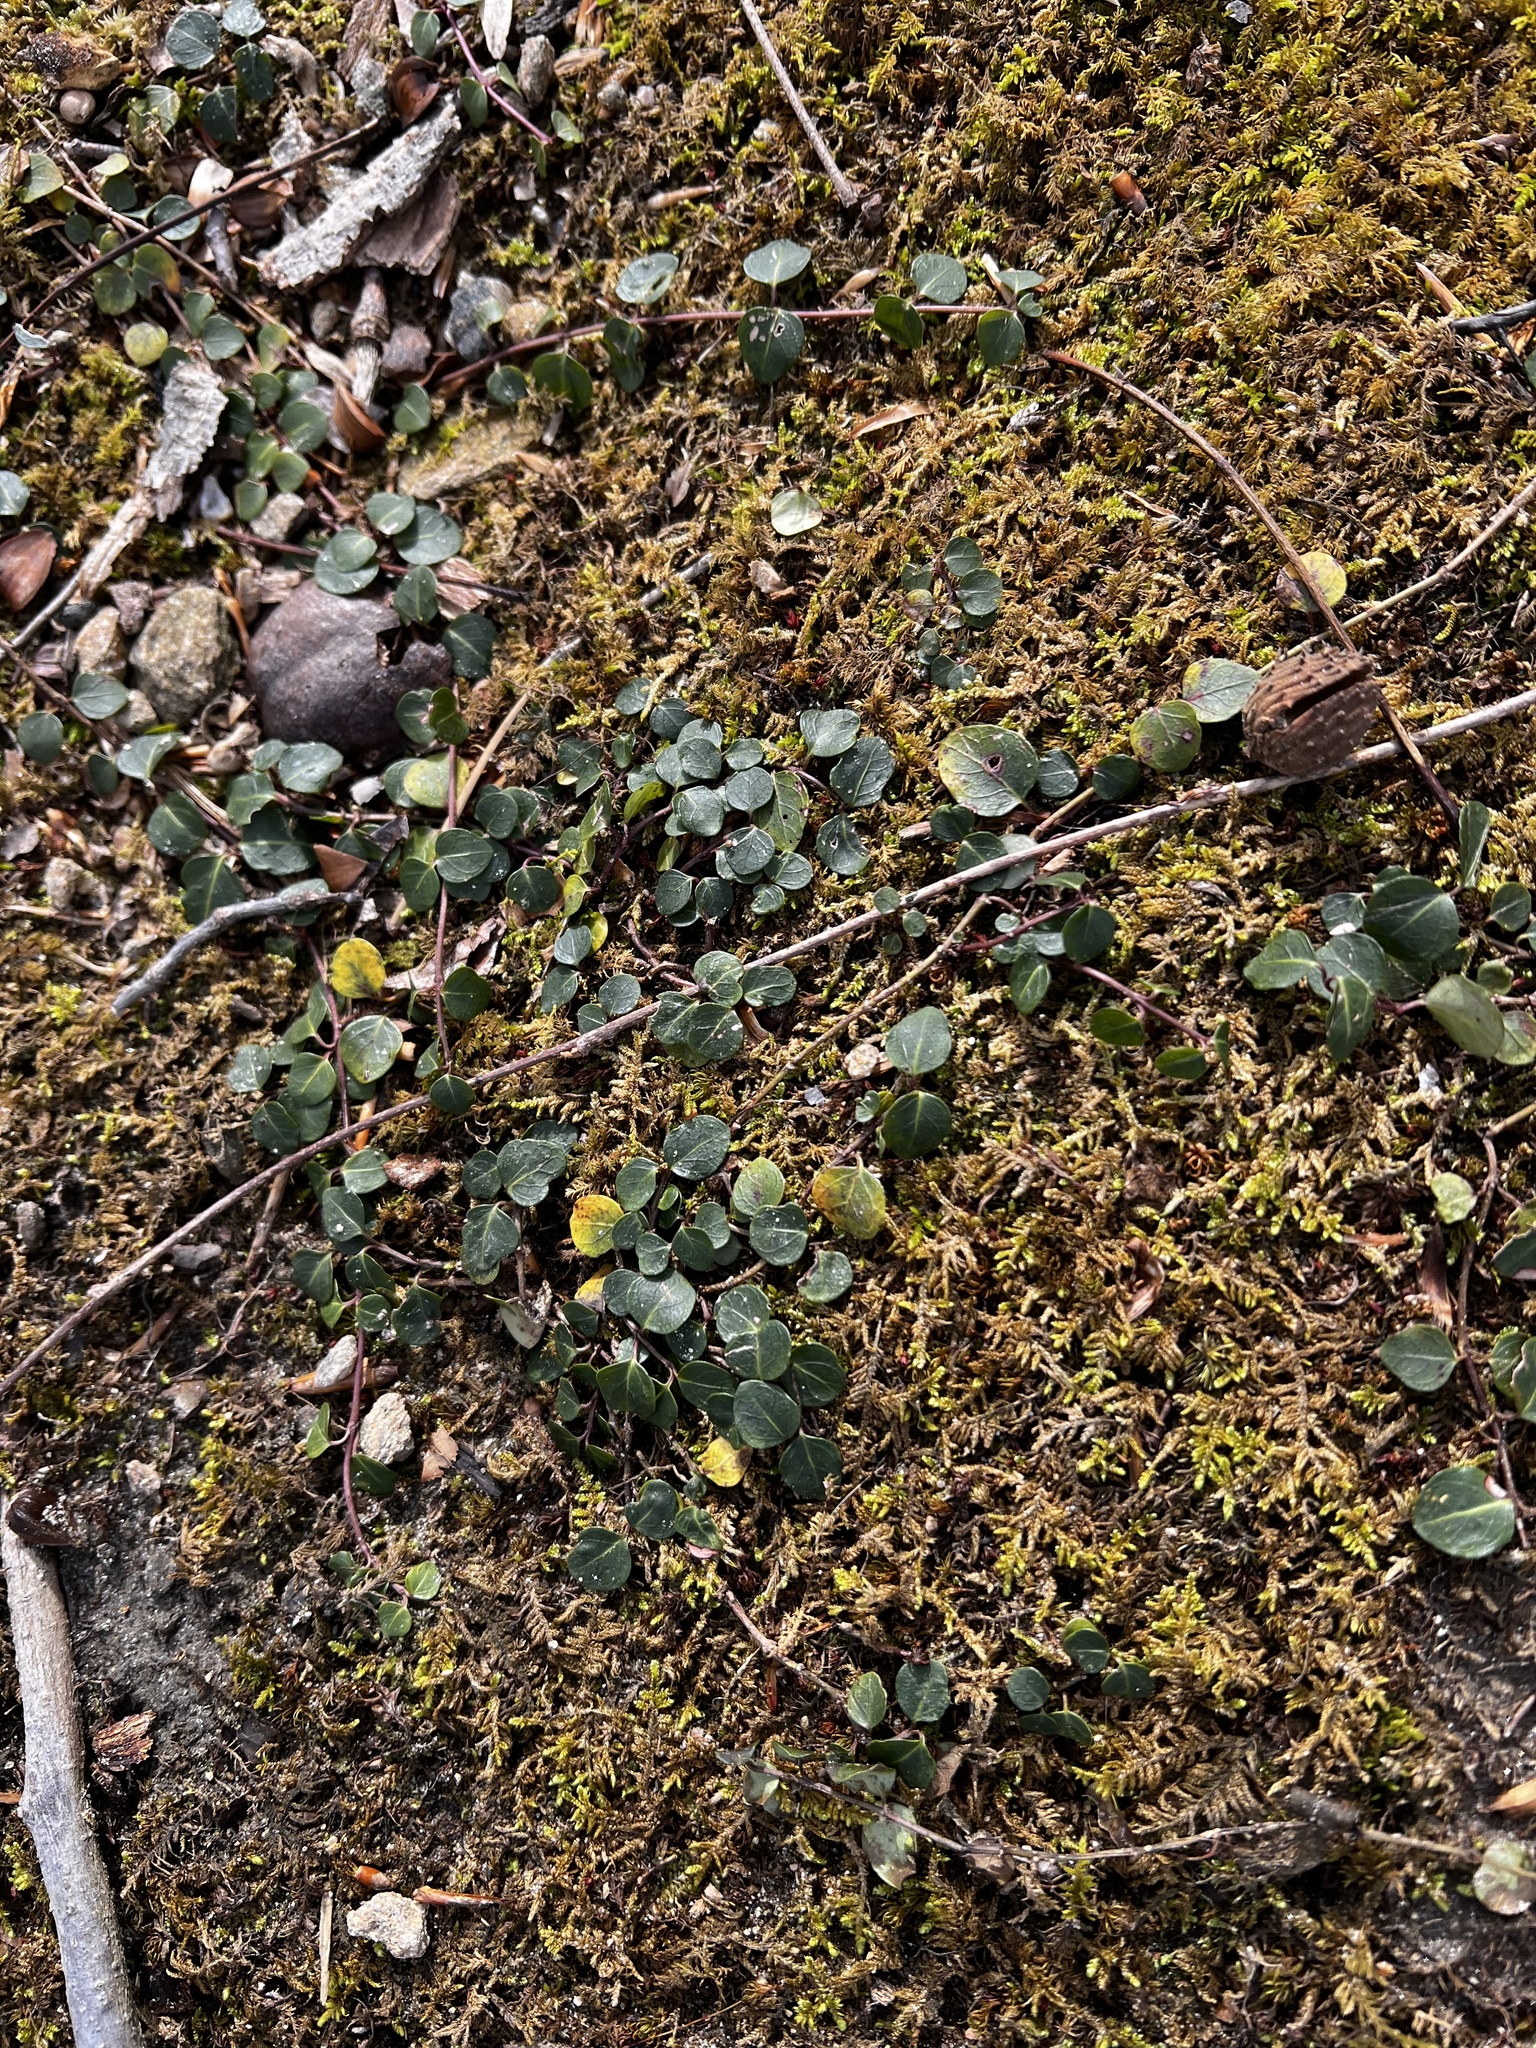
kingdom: Plantae
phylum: Tracheophyta
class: Magnoliopsida
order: Gentianales
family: Rubiaceae
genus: Mitchella
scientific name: Mitchella repens
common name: Partridge-berry
